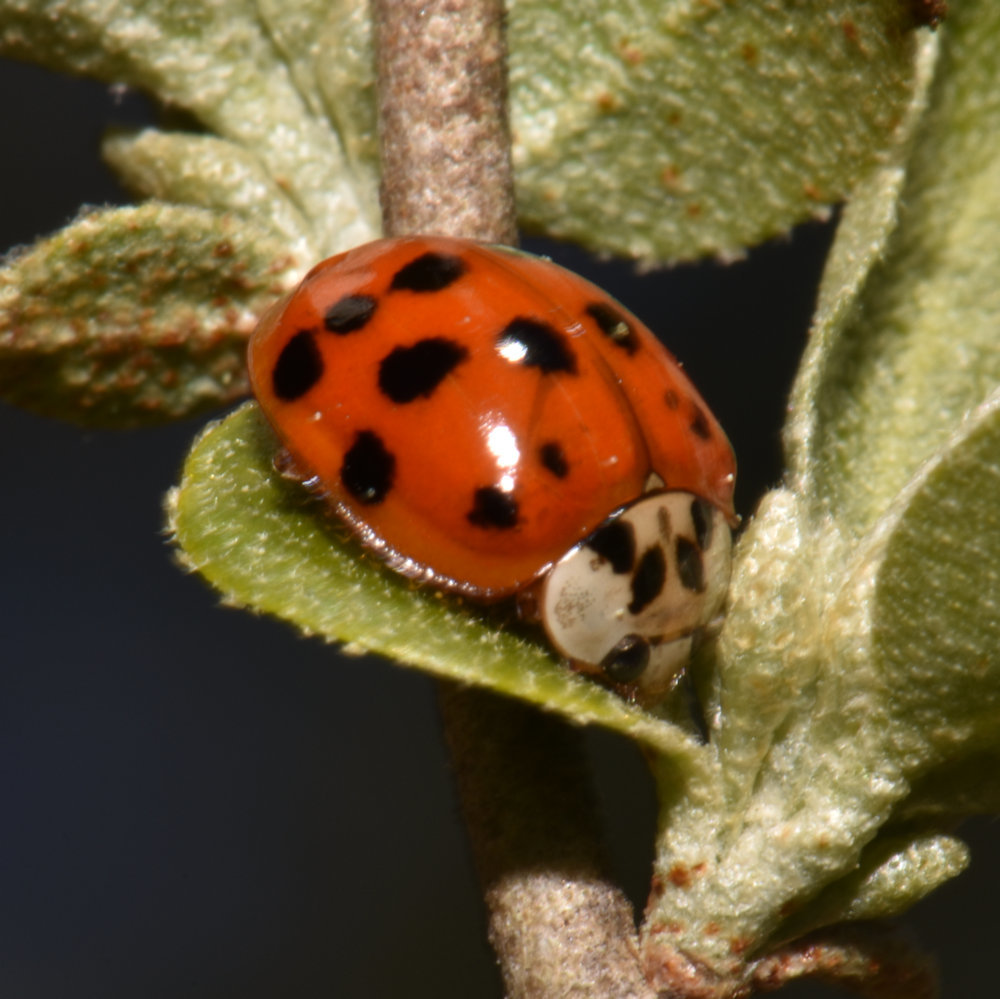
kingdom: Animalia
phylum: Arthropoda
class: Insecta
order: Coleoptera
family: Coccinellidae
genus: Harmonia
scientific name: Harmonia axyridis
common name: Harlequin ladybird
